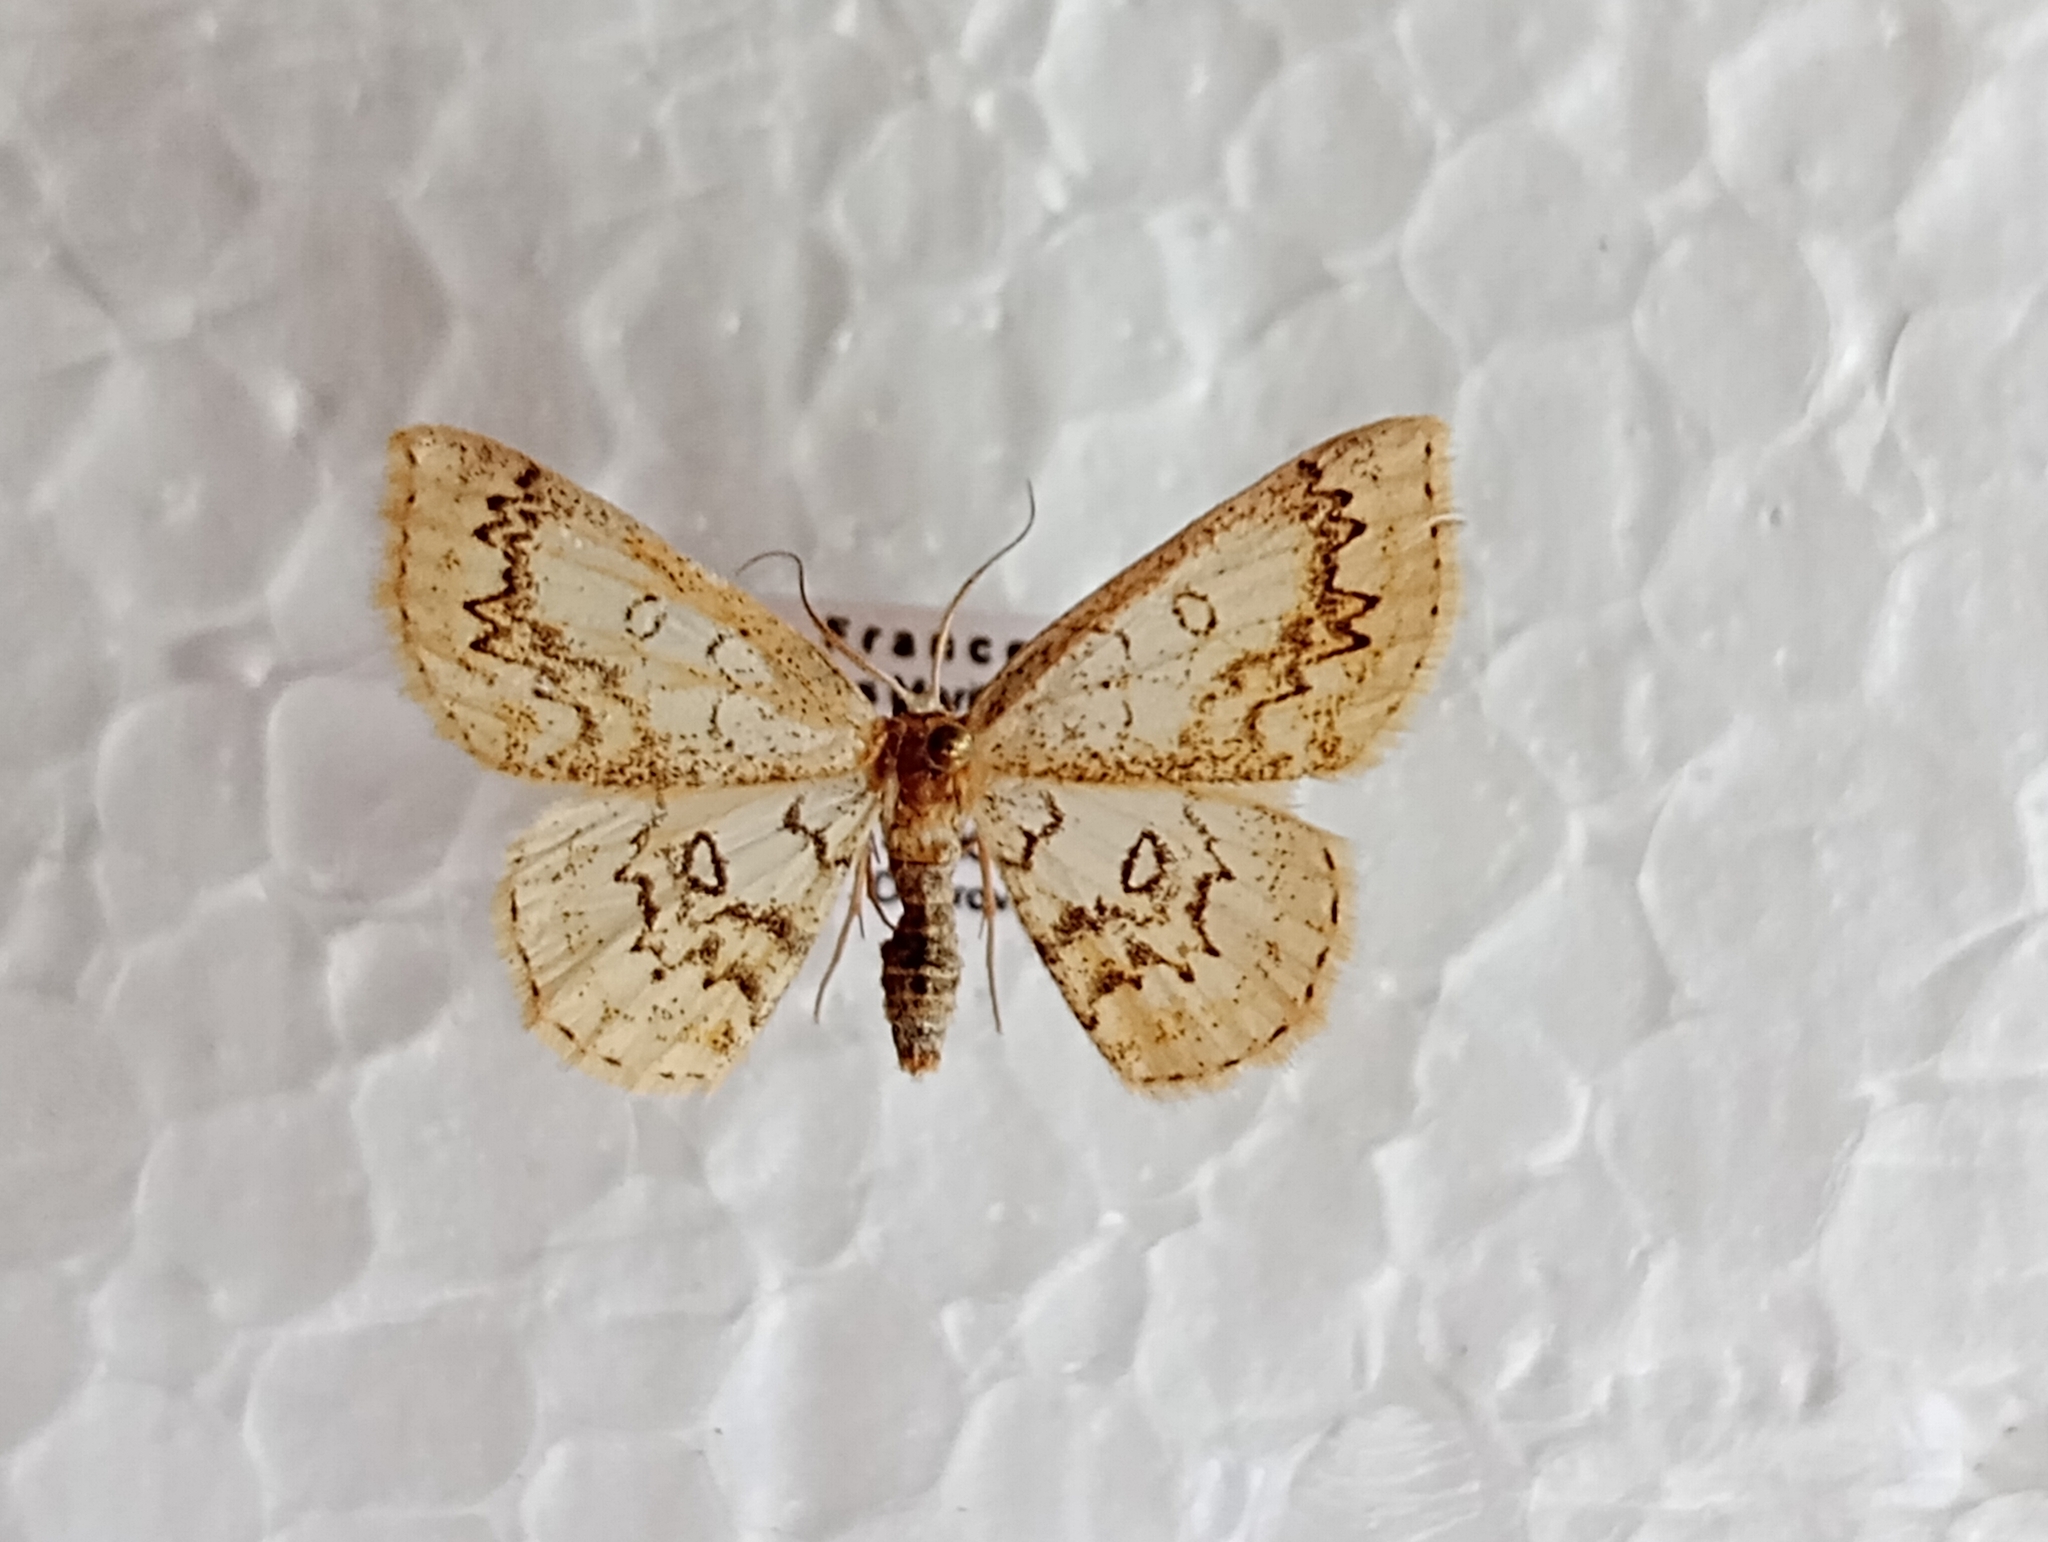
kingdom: Animalia
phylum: Arthropoda
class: Insecta
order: Lepidoptera
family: Geometridae
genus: Cyclophora
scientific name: Cyclophora annularia
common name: Mocha
